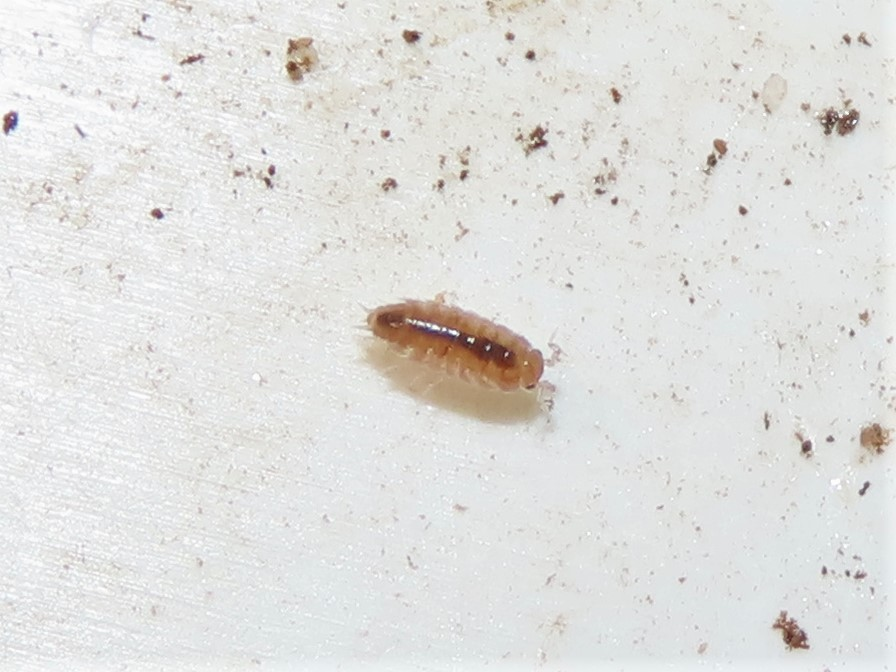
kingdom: Animalia
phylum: Arthropoda
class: Malacostraca
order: Isopoda
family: Philosciidae
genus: Floridoscia
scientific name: Floridoscia fusca
